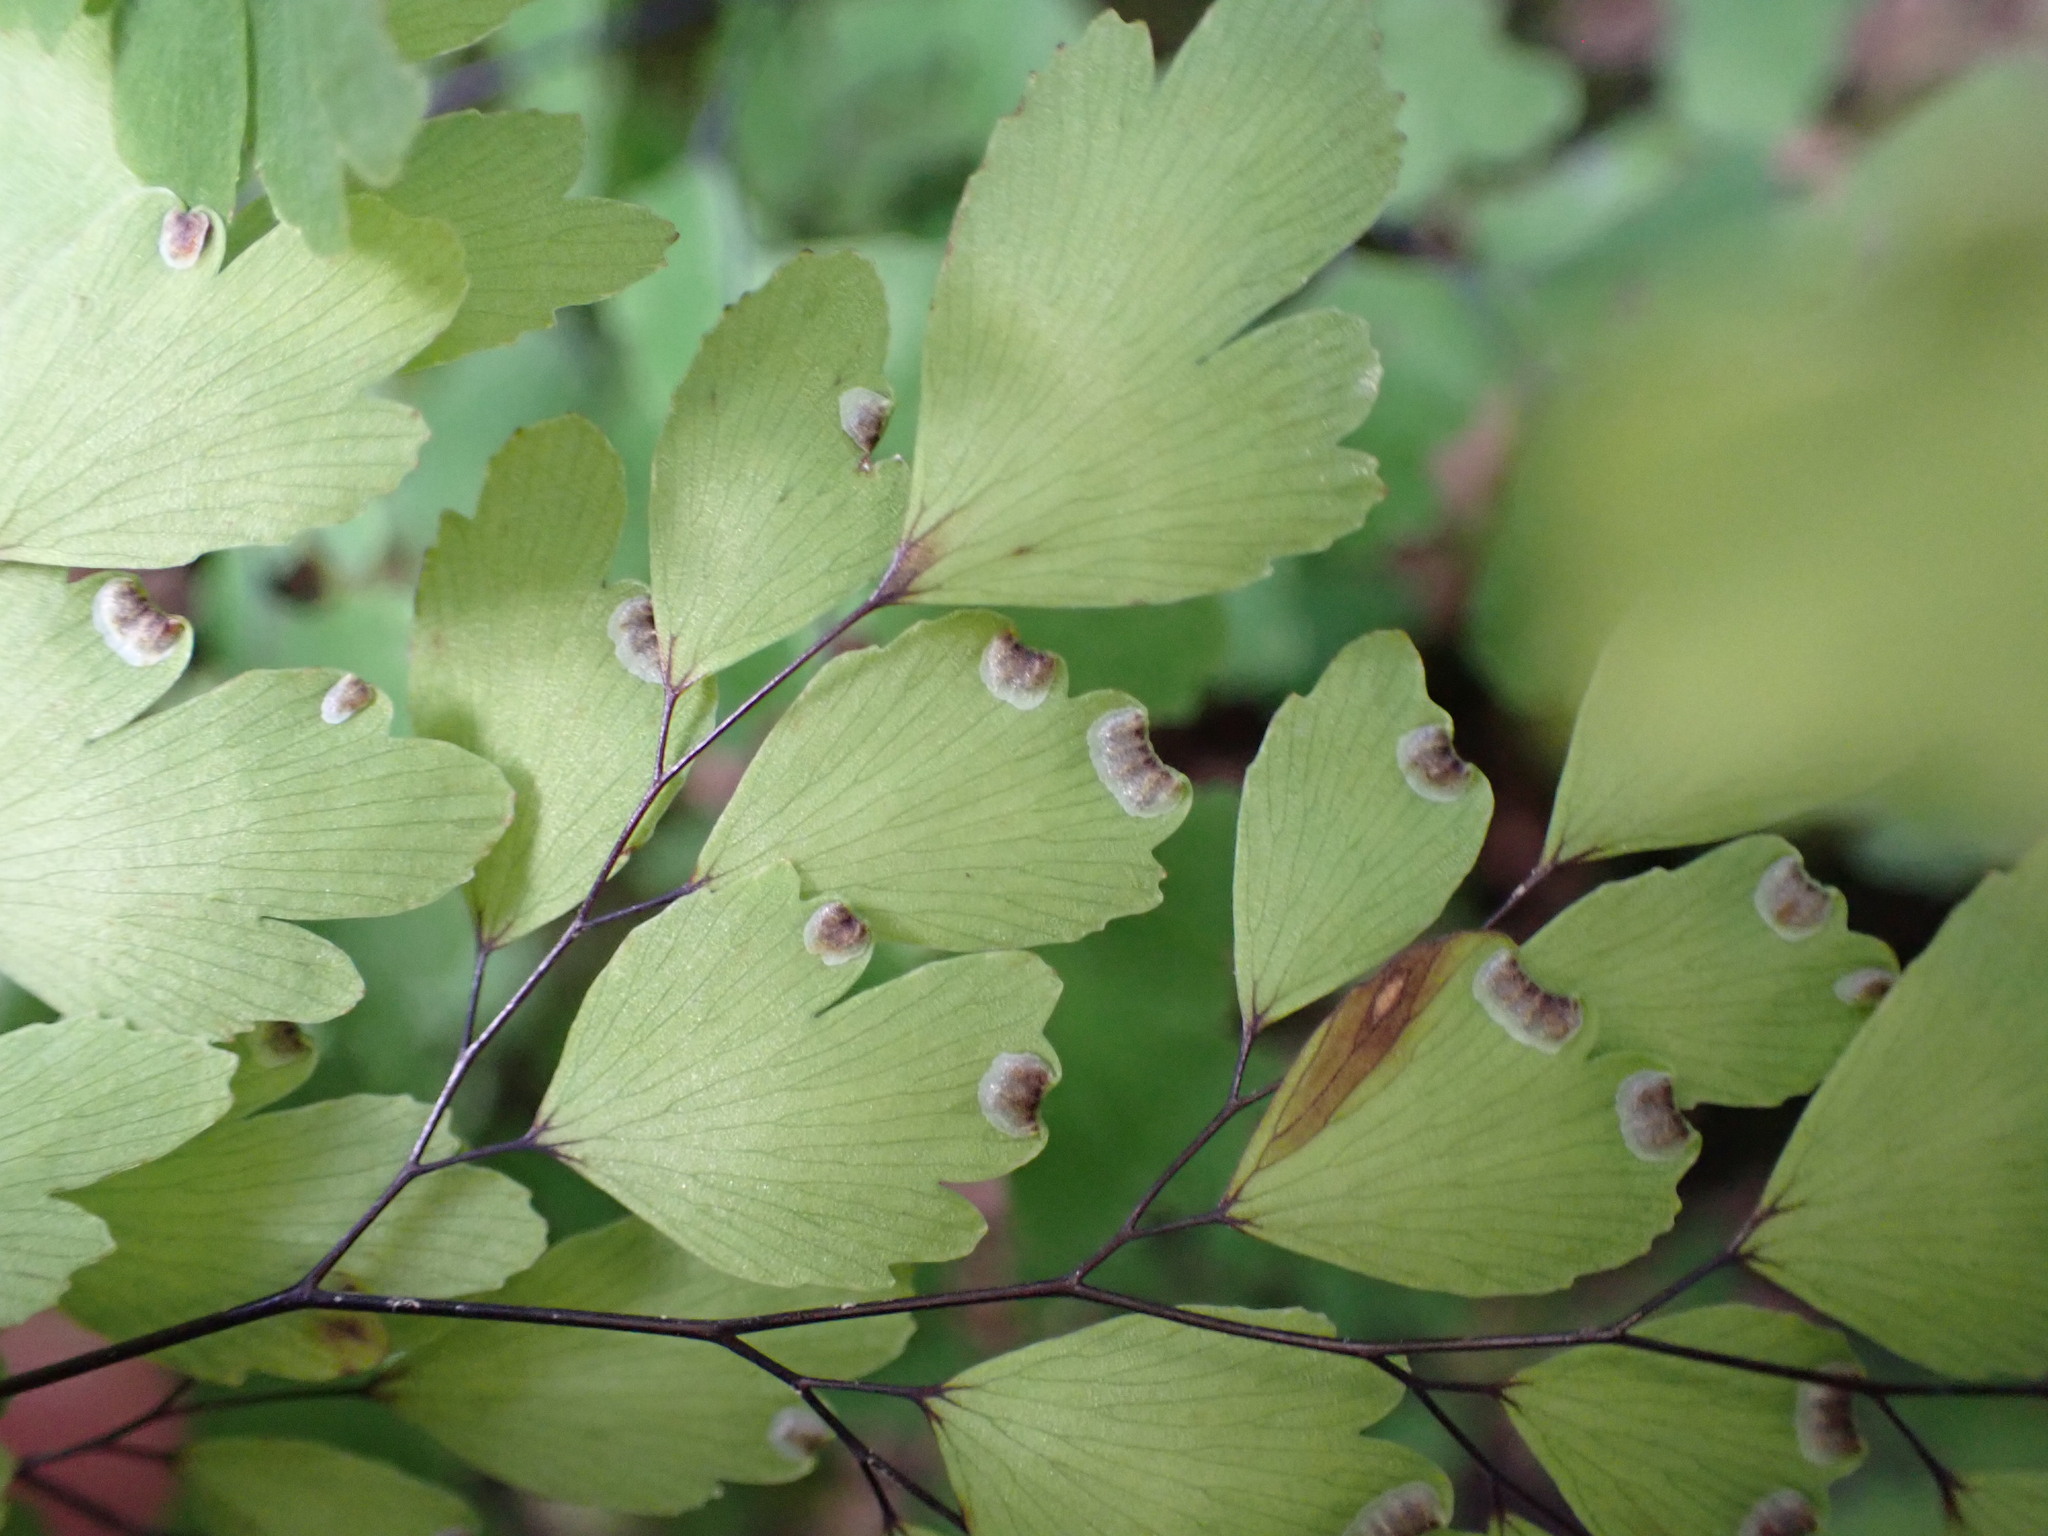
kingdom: Plantae
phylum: Tracheophyta
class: Polypodiopsida
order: Polypodiales
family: Pteridaceae
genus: Adiantum
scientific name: Adiantum capillus-veneris
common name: Maidenhair fern
